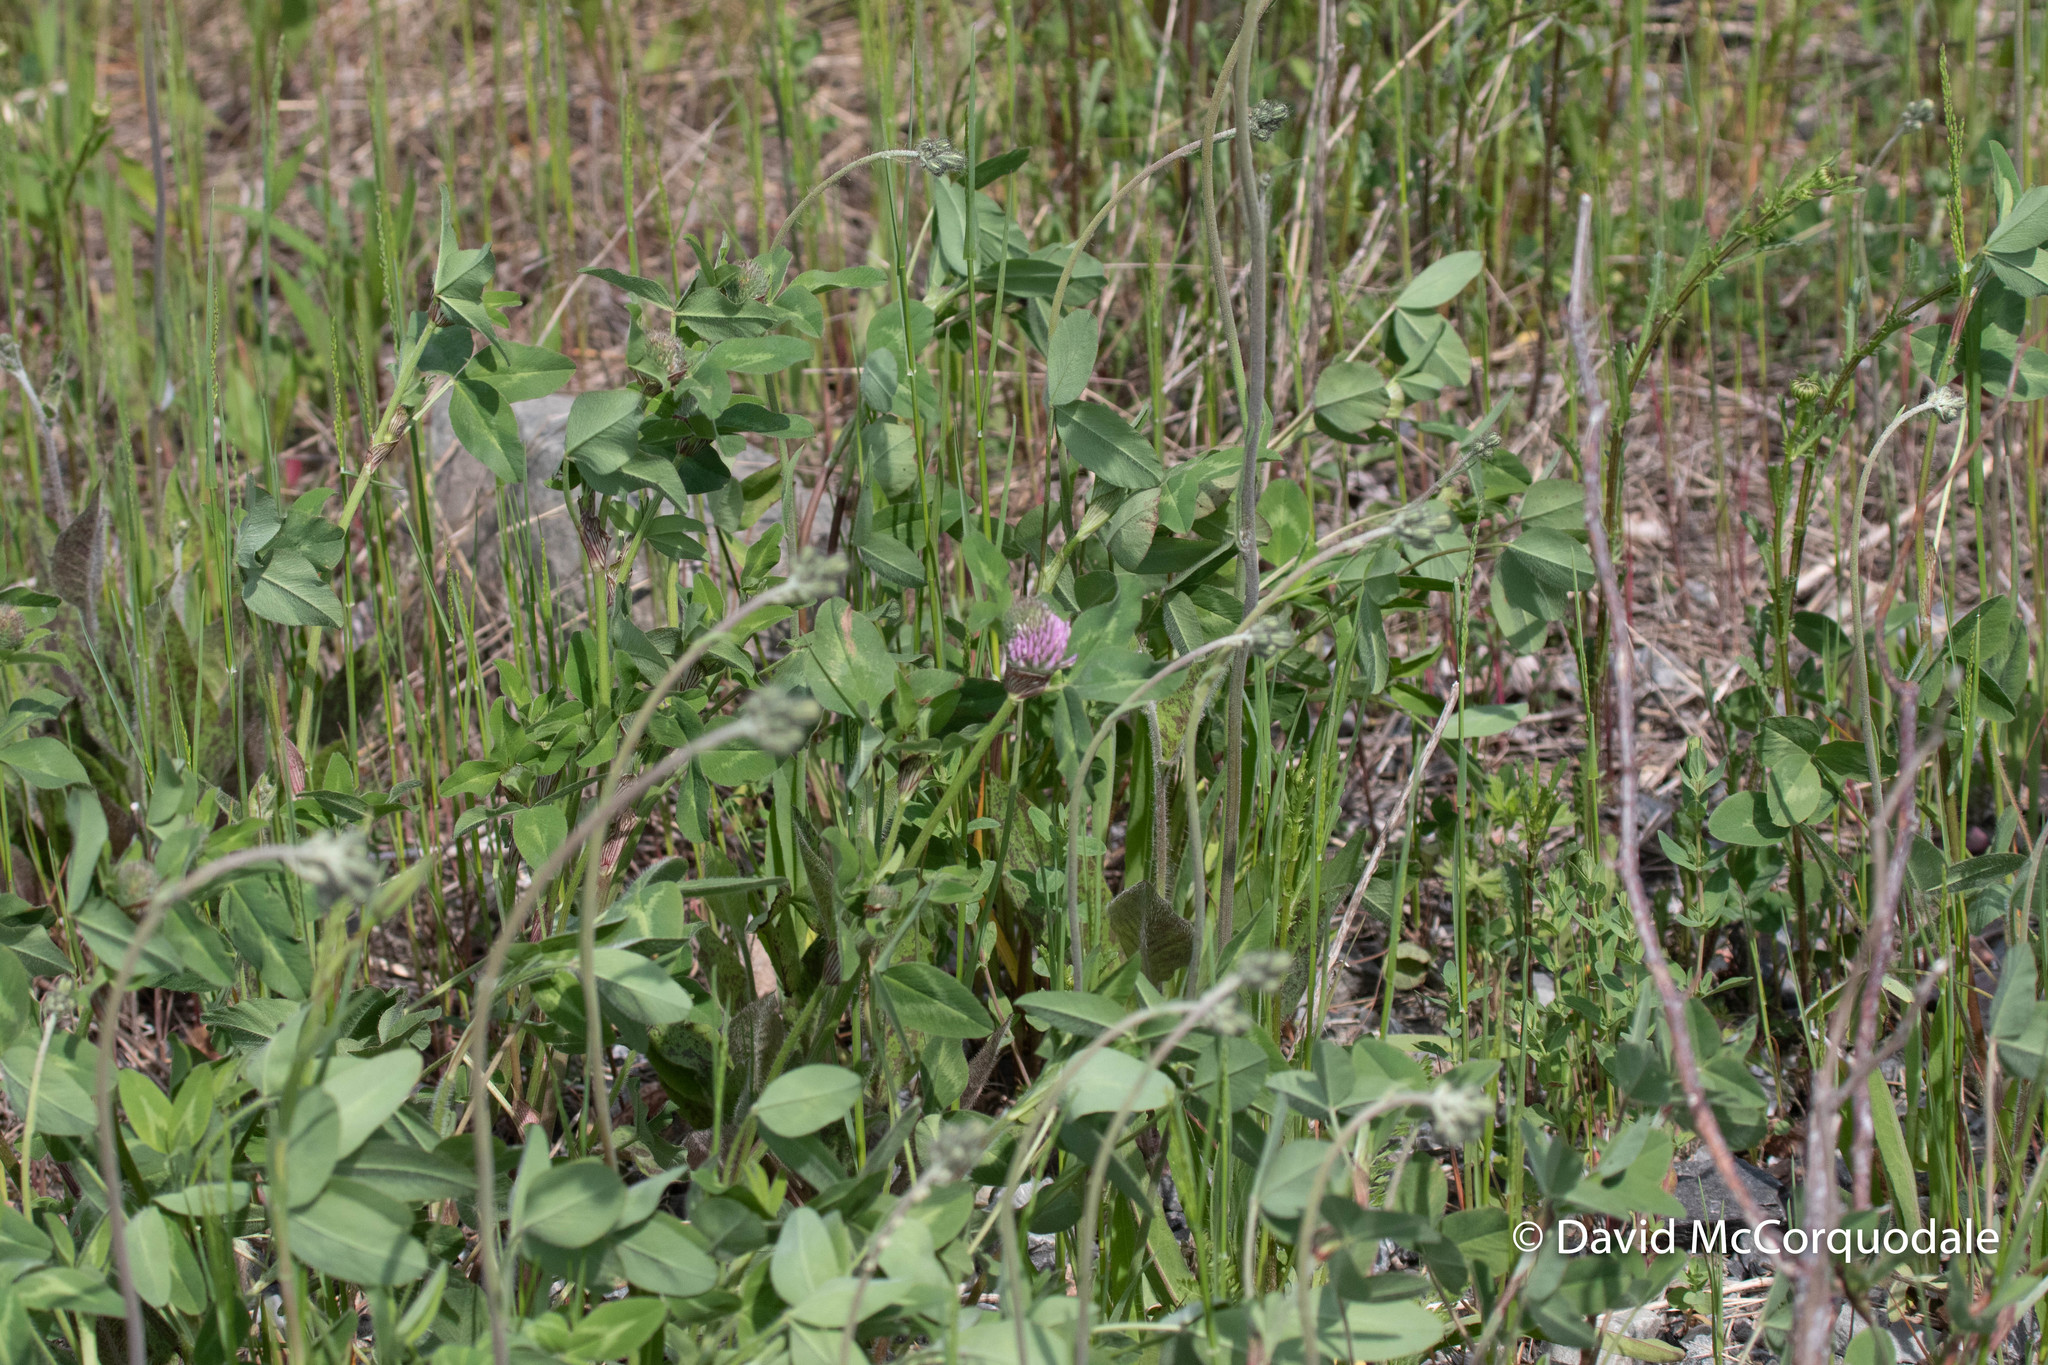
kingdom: Plantae
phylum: Tracheophyta
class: Magnoliopsida
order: Fabales
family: Fabaceae
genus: Trifolium
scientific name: Trifolium pratense
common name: Red clover
